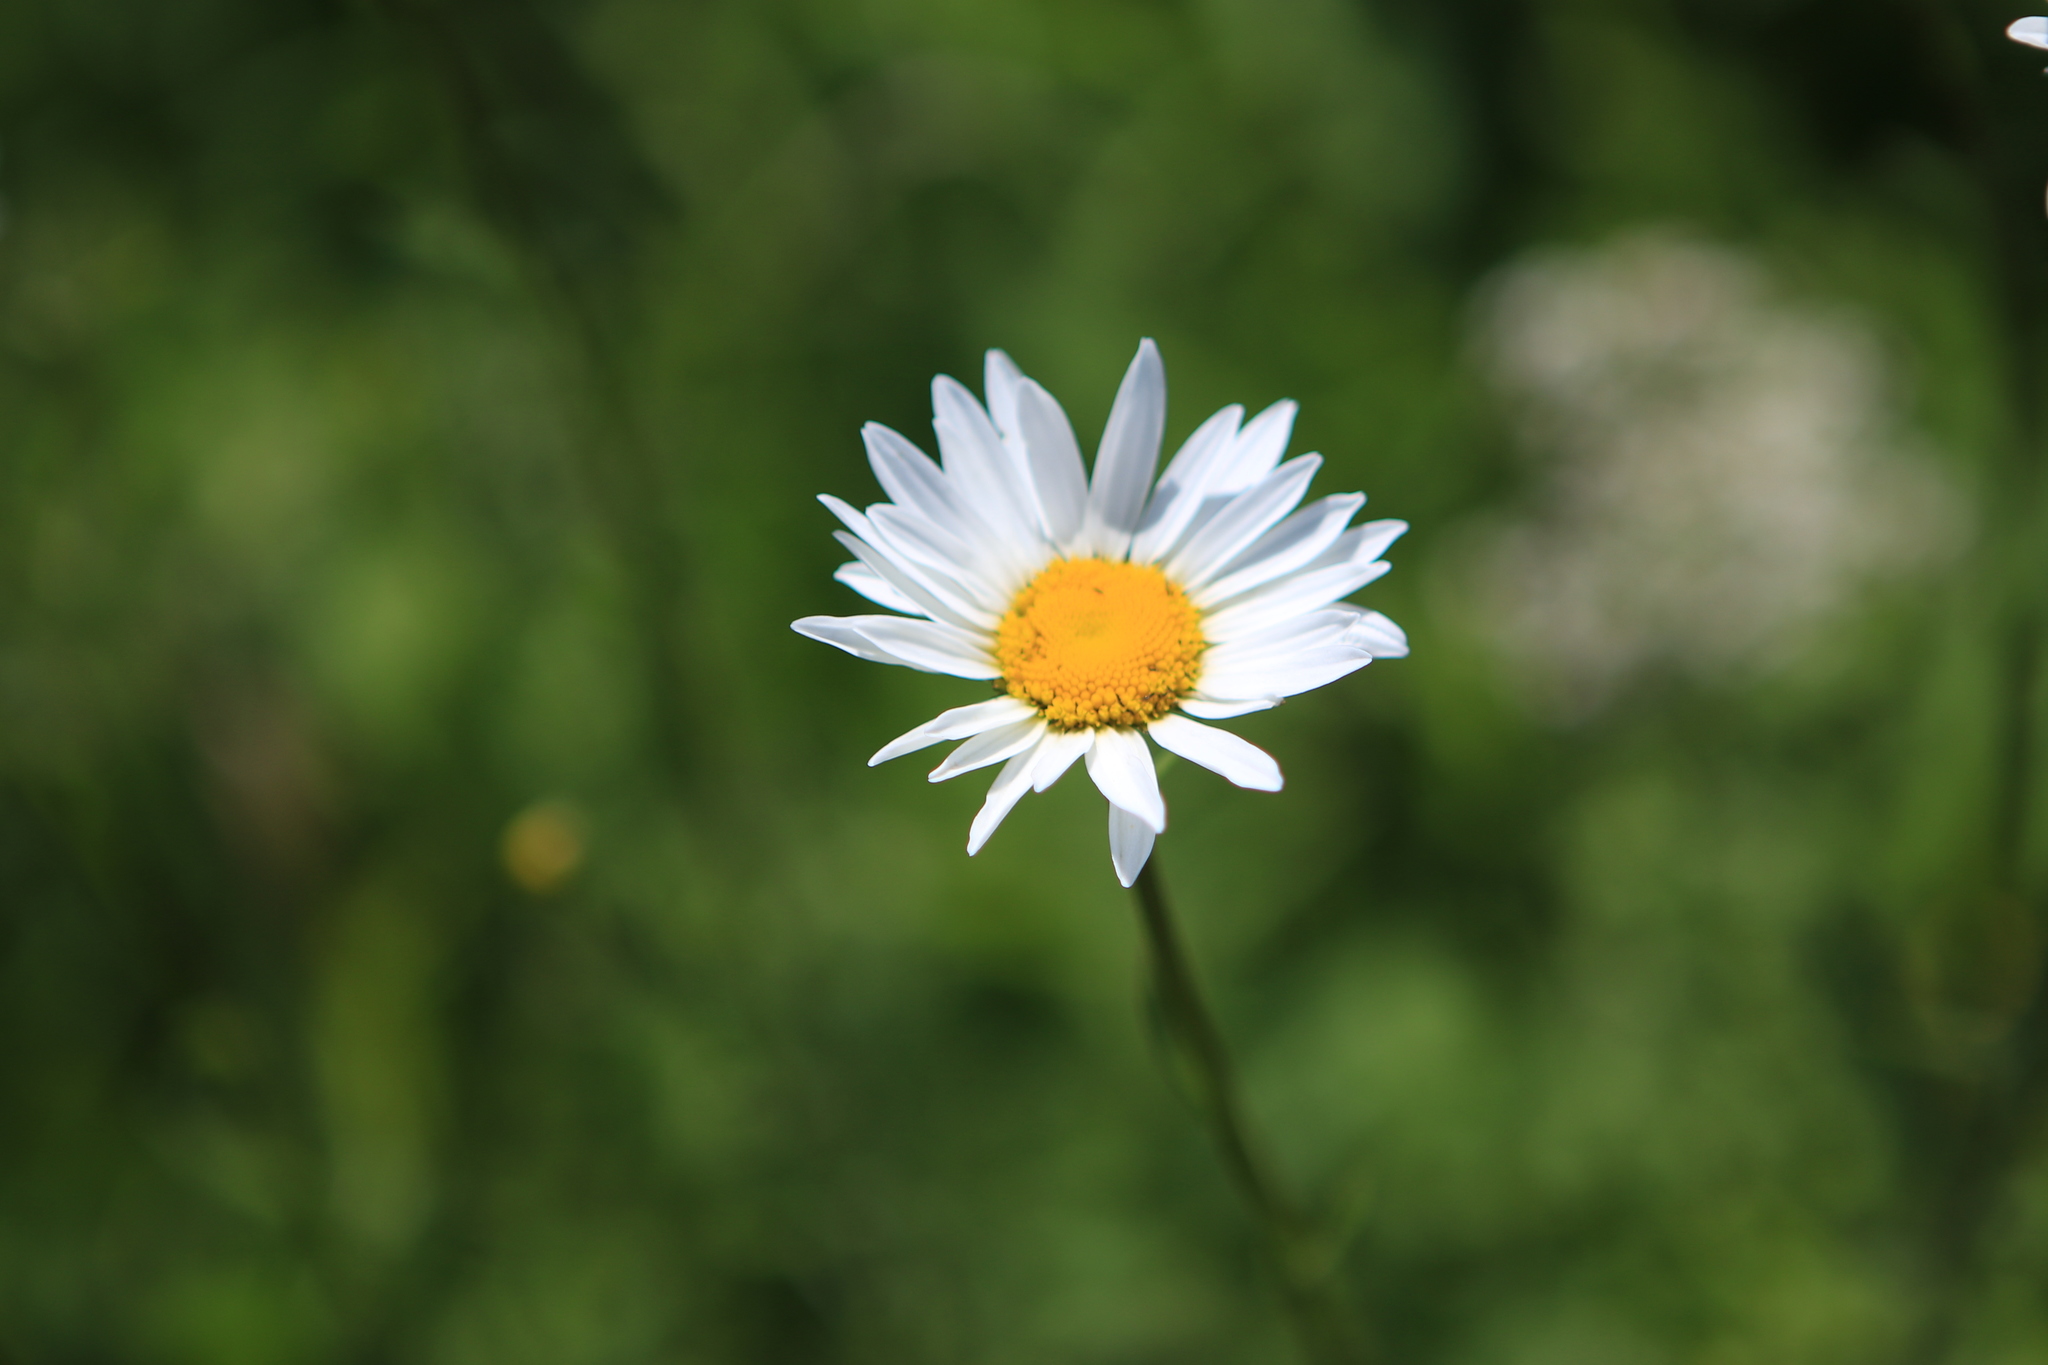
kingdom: Plantae
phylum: Tracheophyta
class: Magnoliopsida
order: Asterales
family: Asteraceae
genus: Leucanthemum
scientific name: Leucanthemum vulgare
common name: Oxeye daisy
